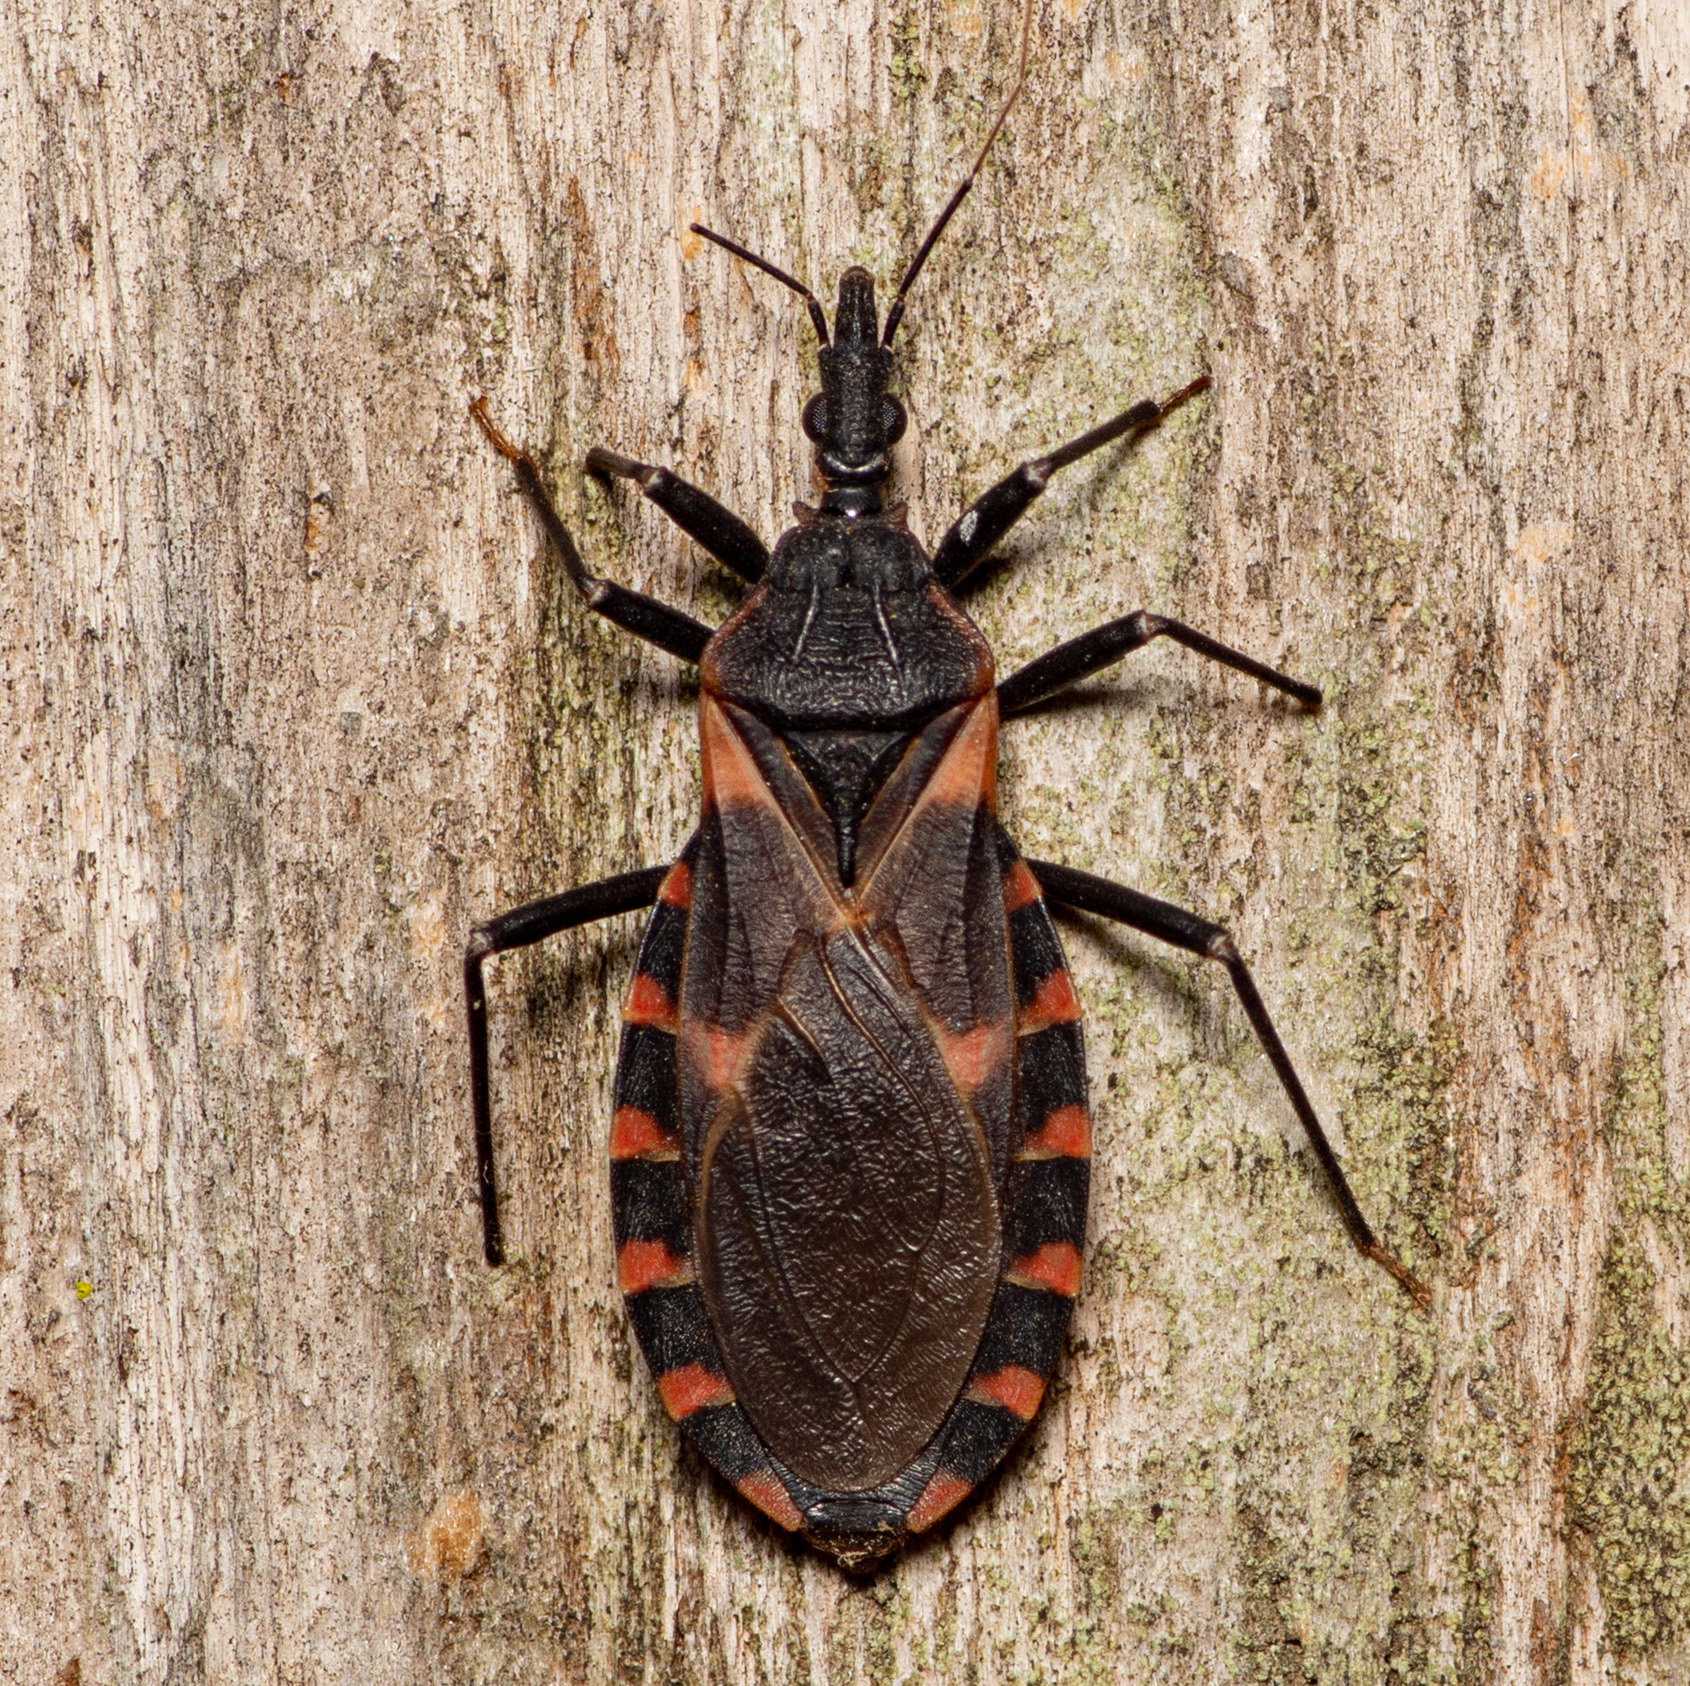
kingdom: Animalia
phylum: Arthropoda
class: Insecta
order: Hemiptera
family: Reduviidae
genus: Triatoma
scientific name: Triatoma sanguisuga
